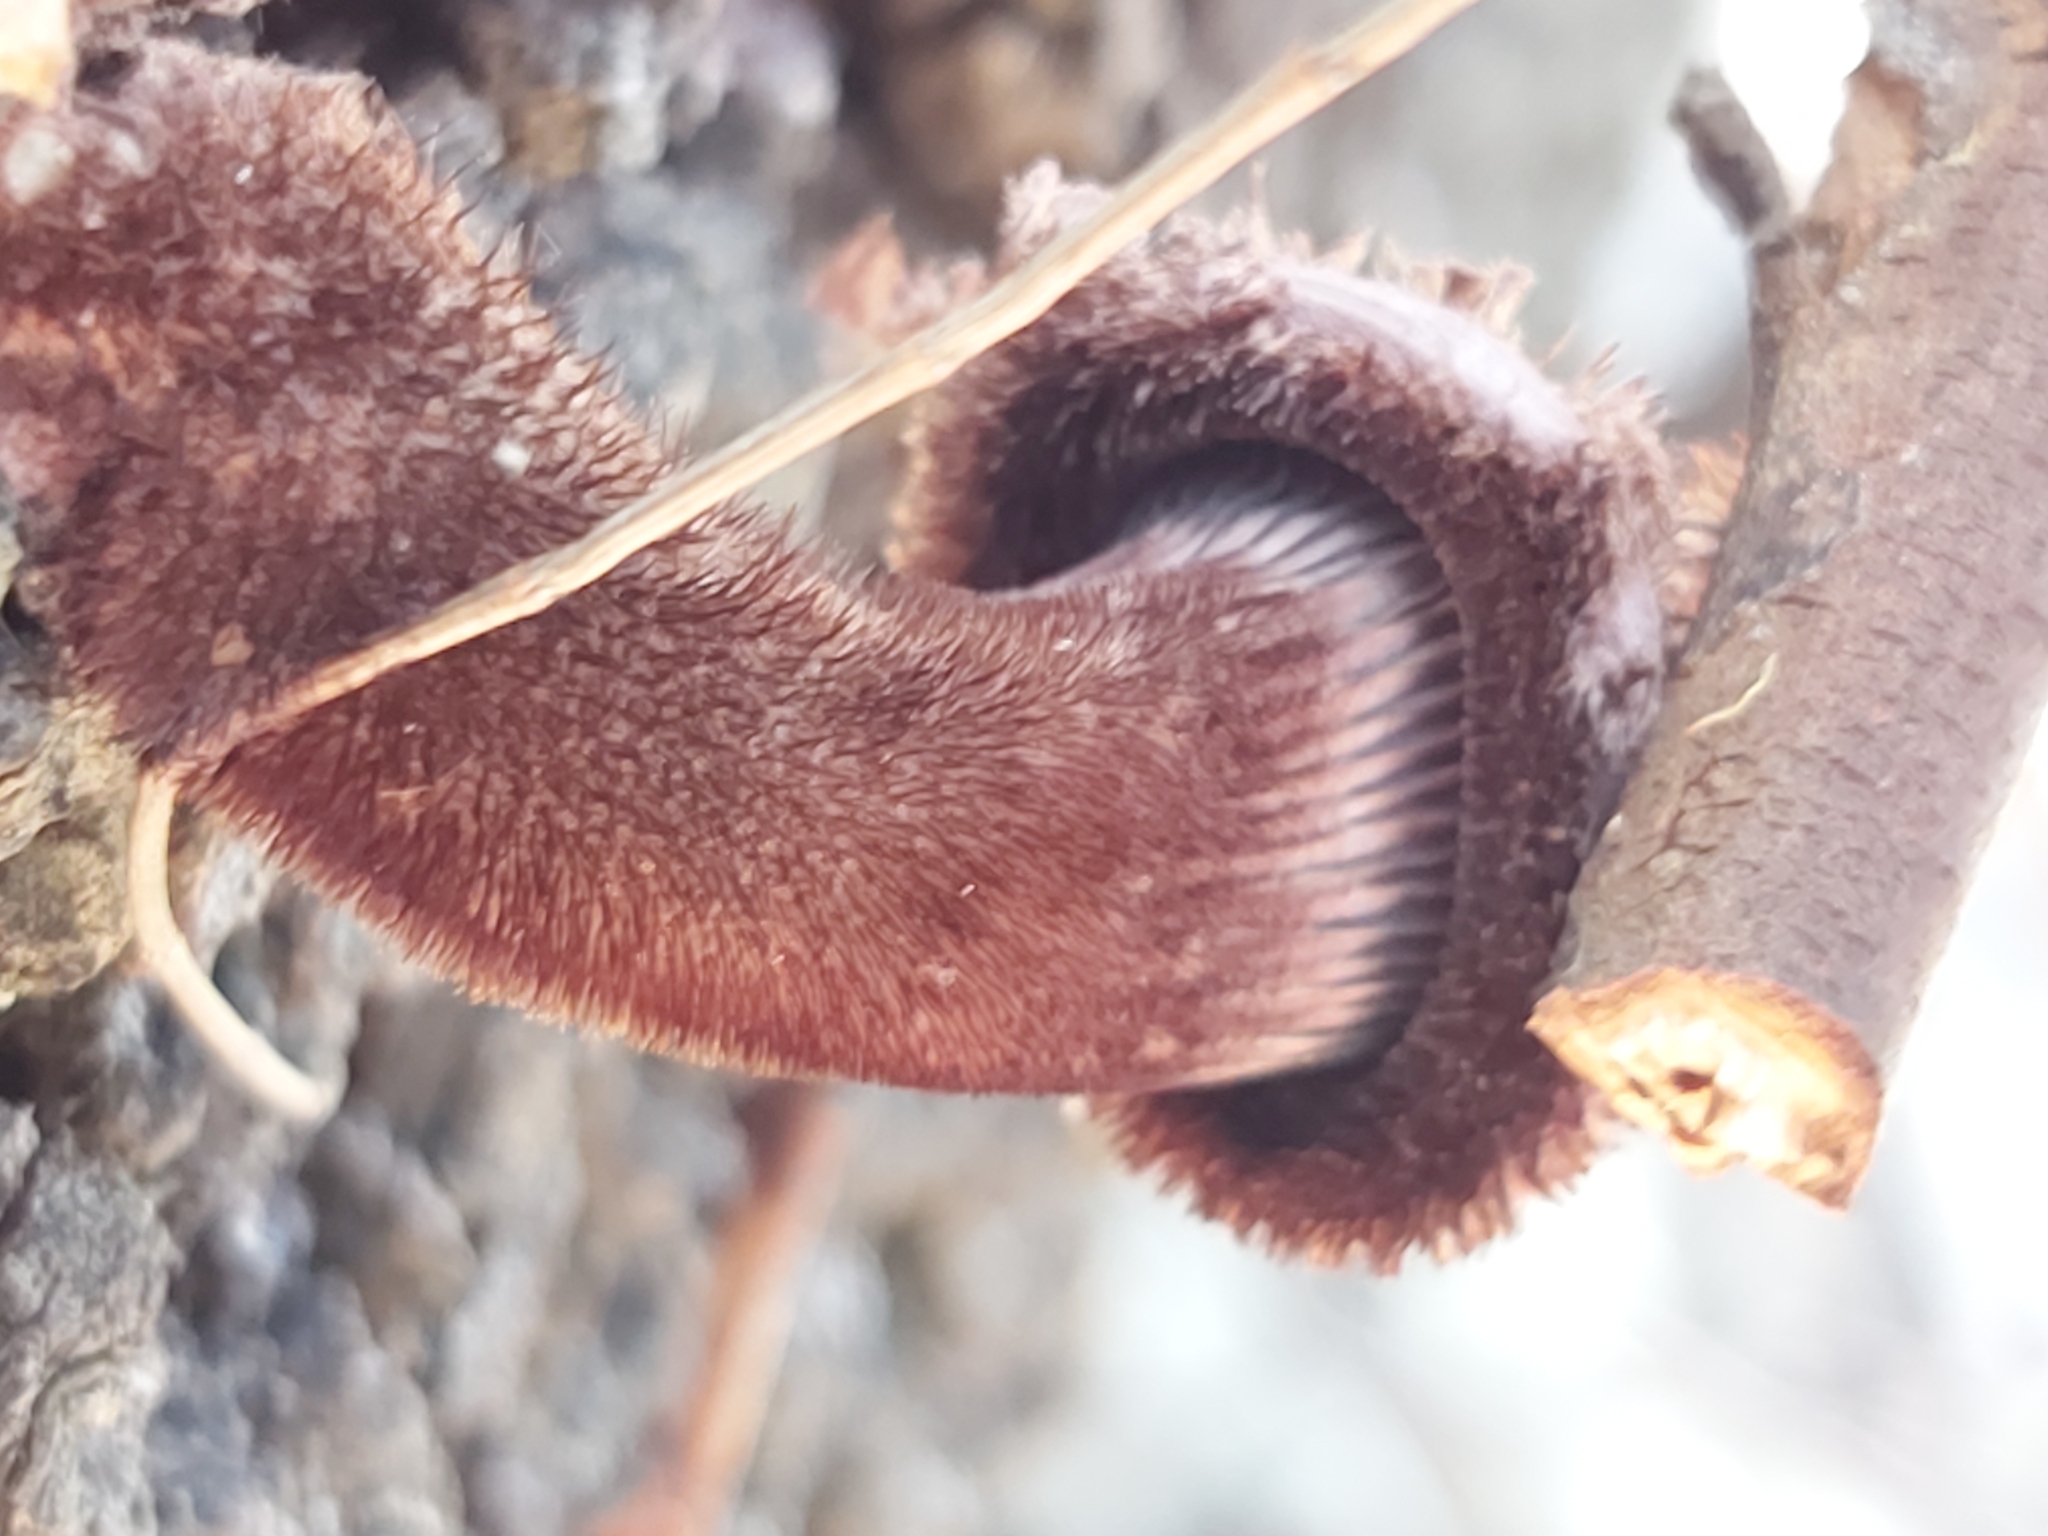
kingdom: Fungi
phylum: Basidiomycota
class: Agaricomycetes
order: Polyporales
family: Polyporaceae
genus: Lentinus
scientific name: Lentinus fasciatus
